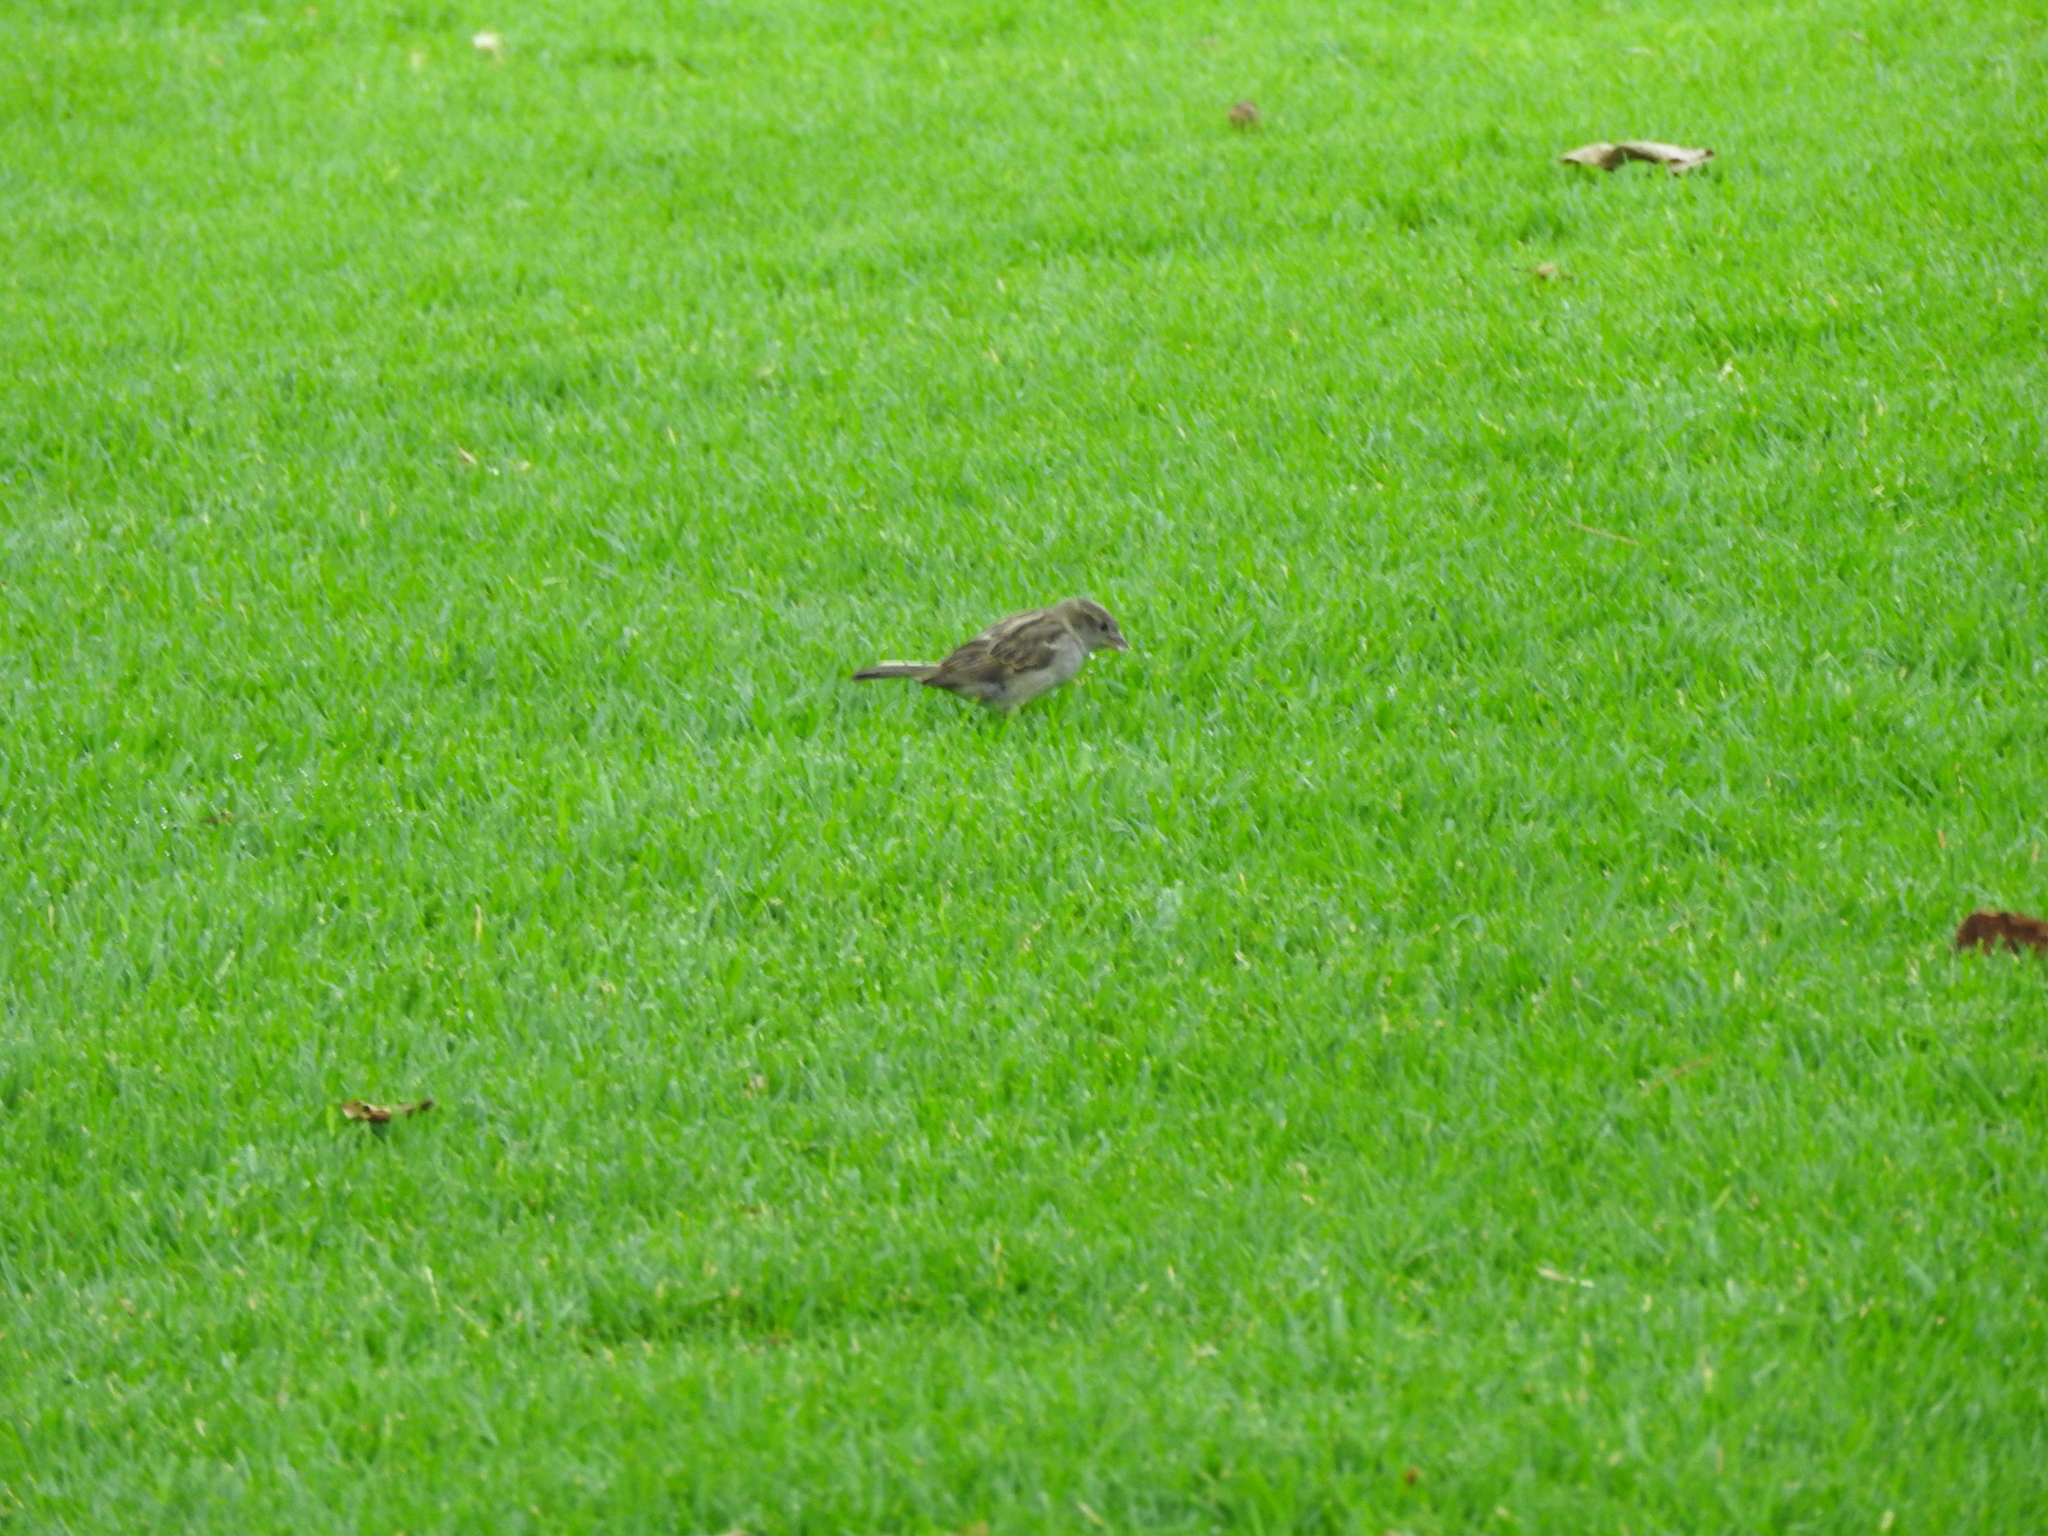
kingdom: Animalia
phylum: Chordata
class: Aves
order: Passeriformes
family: Passeridae
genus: Passer
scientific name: Passer domesticus
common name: House sparrow
